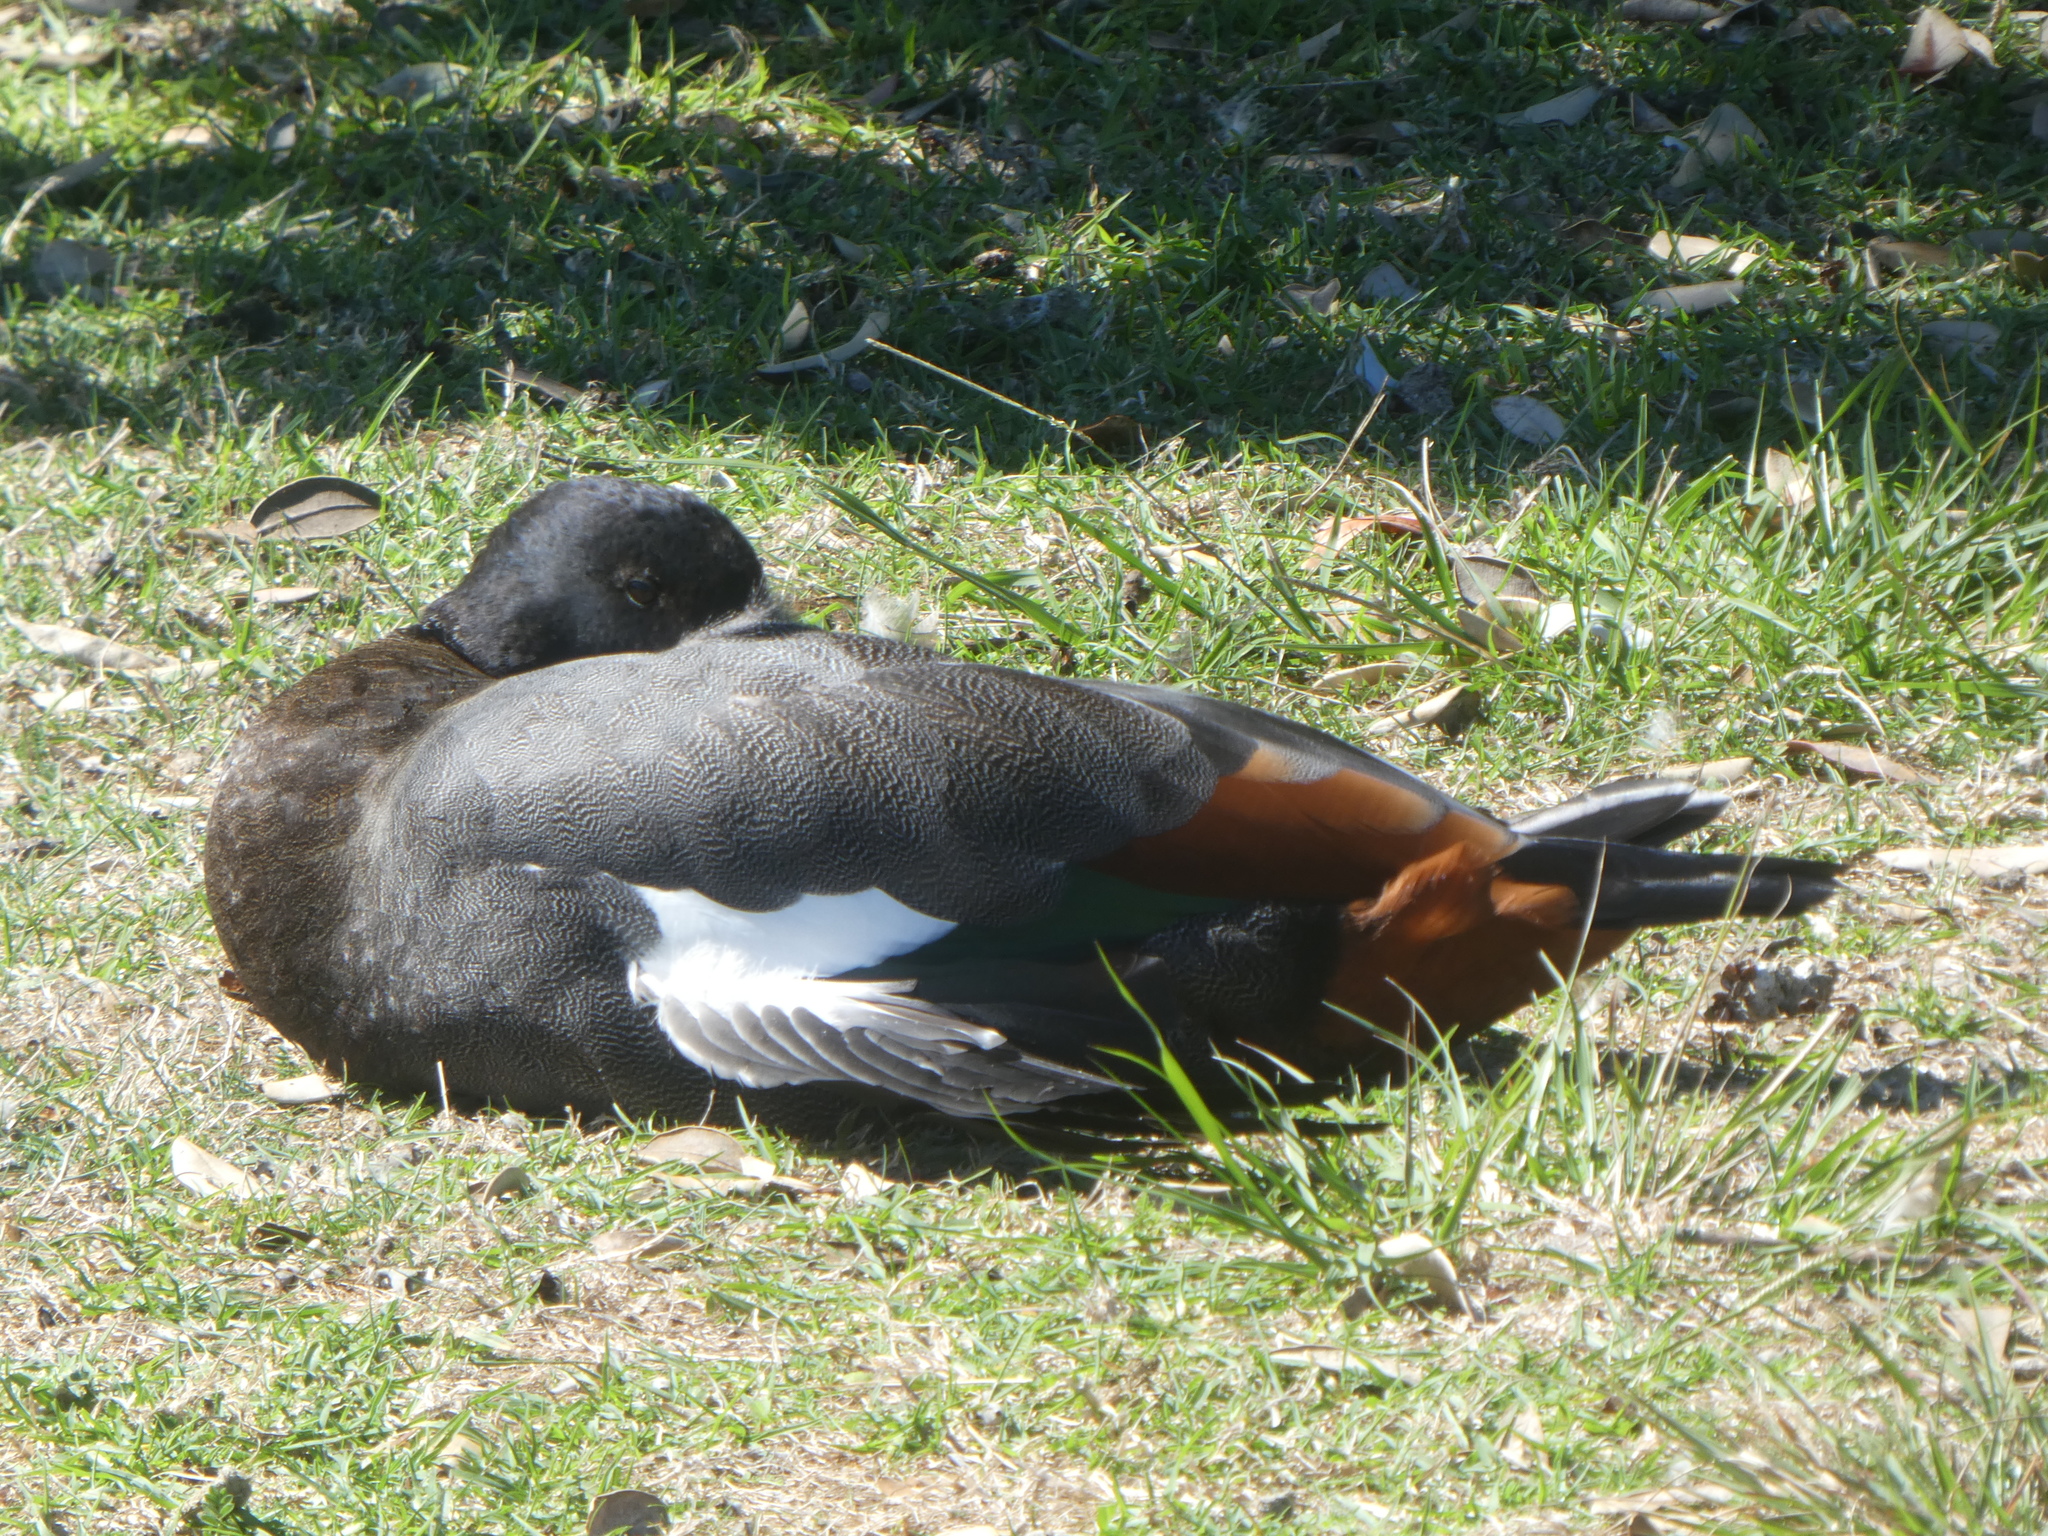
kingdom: Animalia
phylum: Chordata
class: Aves
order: Anseriformes
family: Anatidae
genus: Tadorna
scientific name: Tadorna variegata
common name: Paradise shelduck
